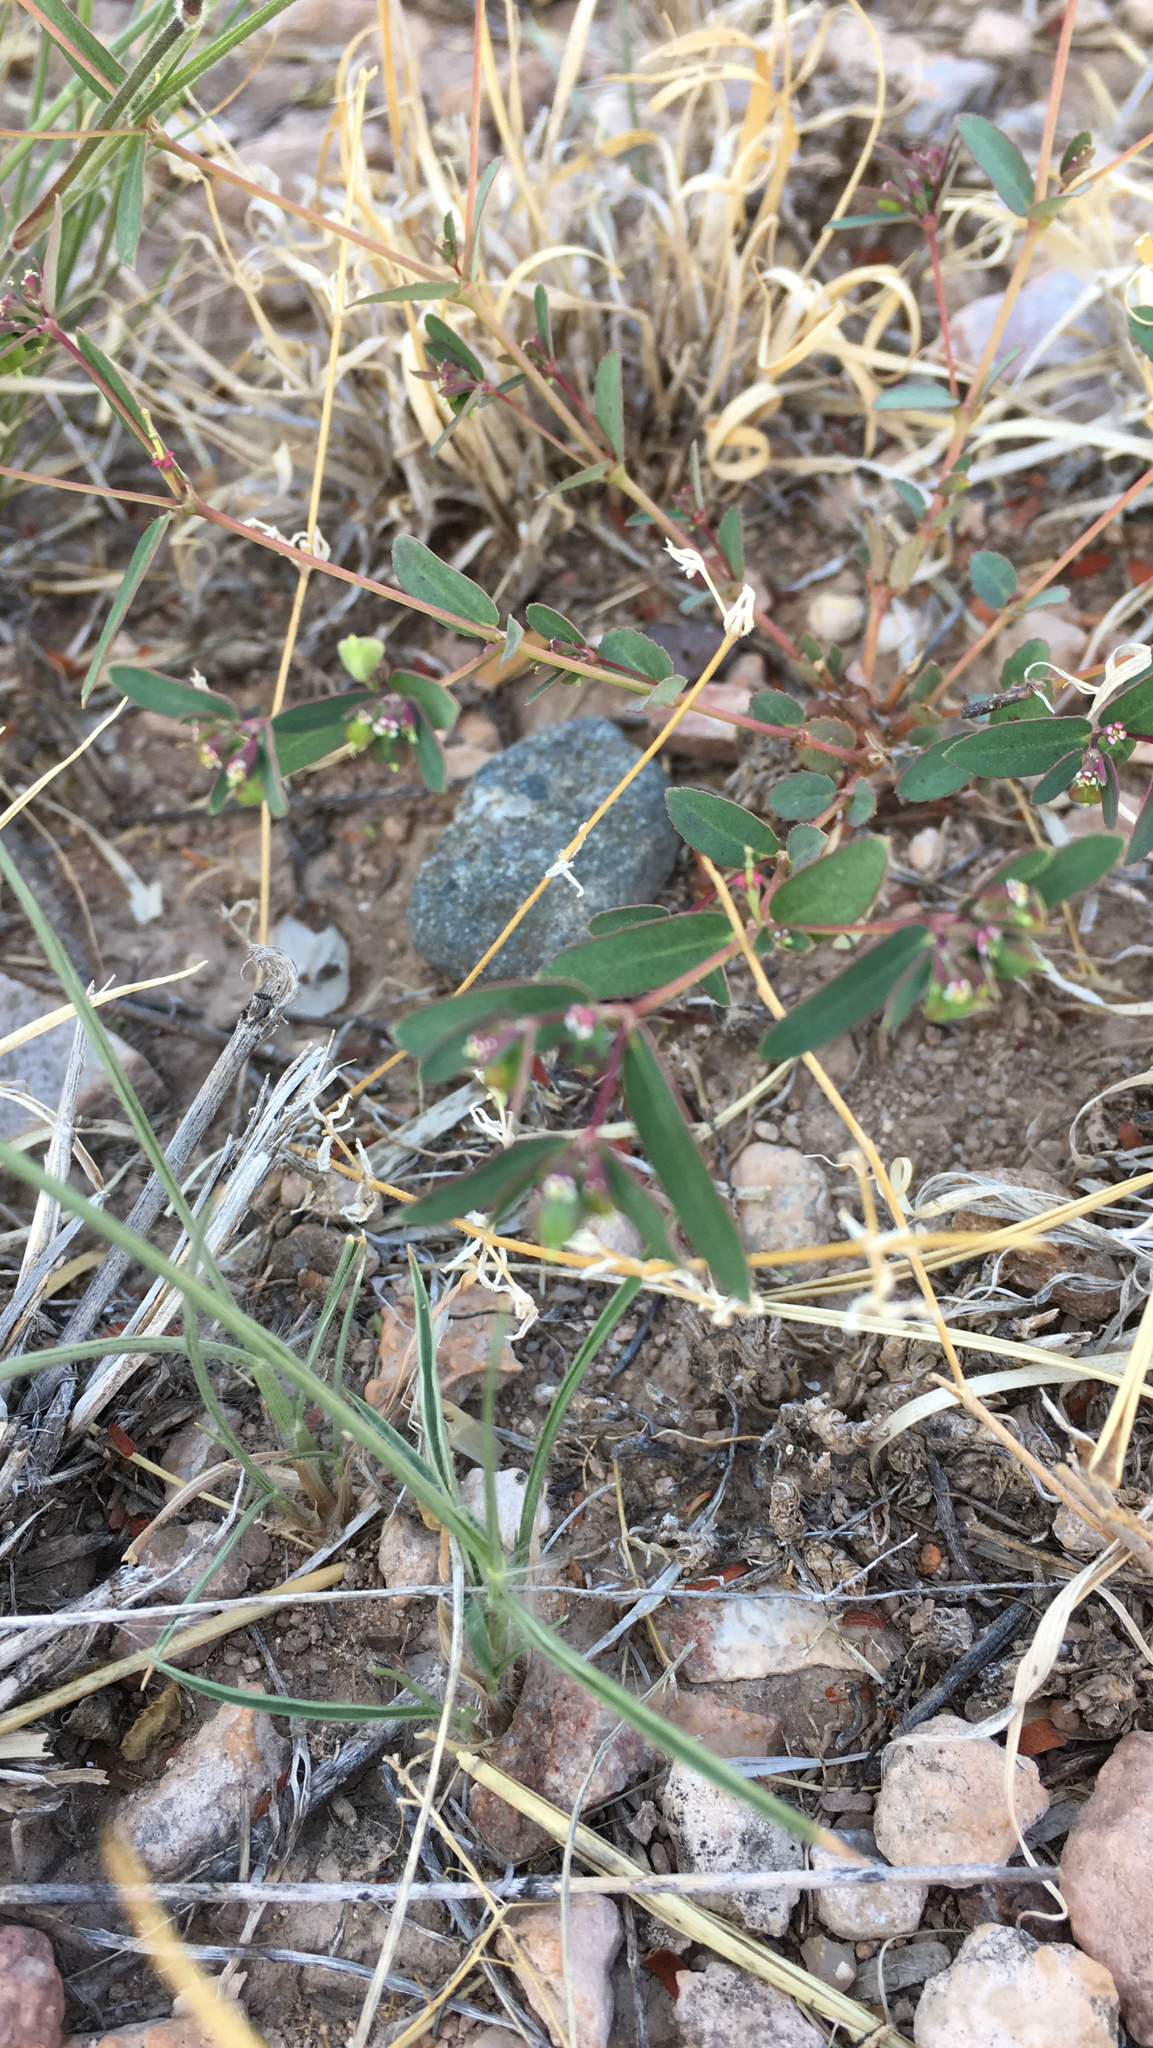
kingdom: Plantae
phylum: Tracheophyta
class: Magnoliopsida
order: Malpighiales
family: Euphorbiaceae
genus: Euphorbia
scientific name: Euphorbia hyssopifolia
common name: Hyssopleaf sandmat
